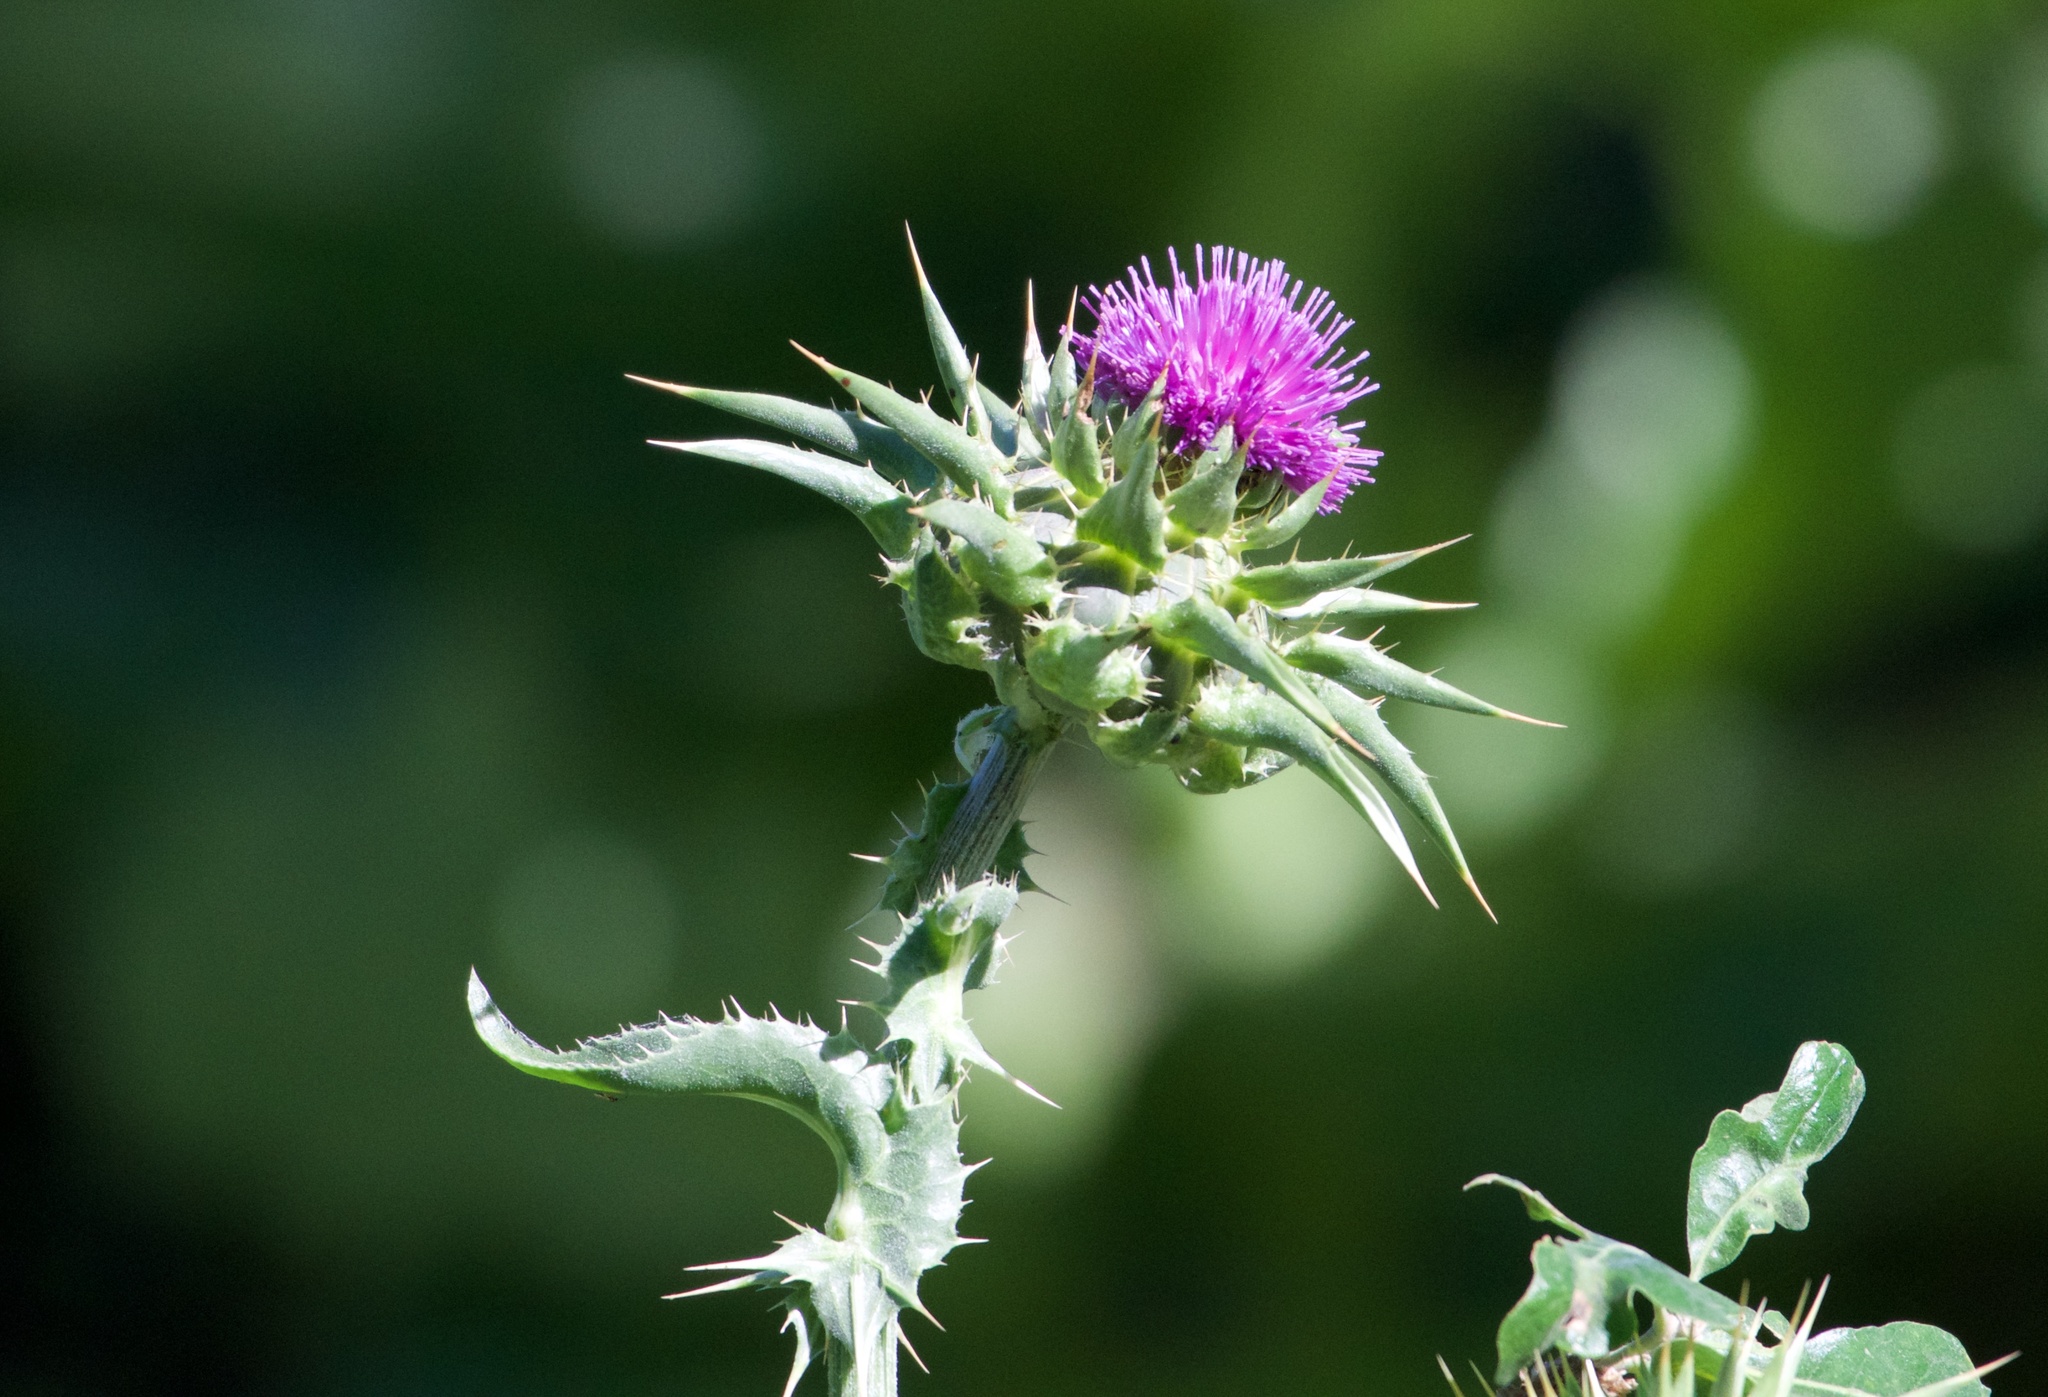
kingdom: Plantae
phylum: Tracheophyta
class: Magnoliopsida
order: Asterales
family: Asteraceae
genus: Silybum
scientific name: Silybum marianum
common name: Milk thistle
